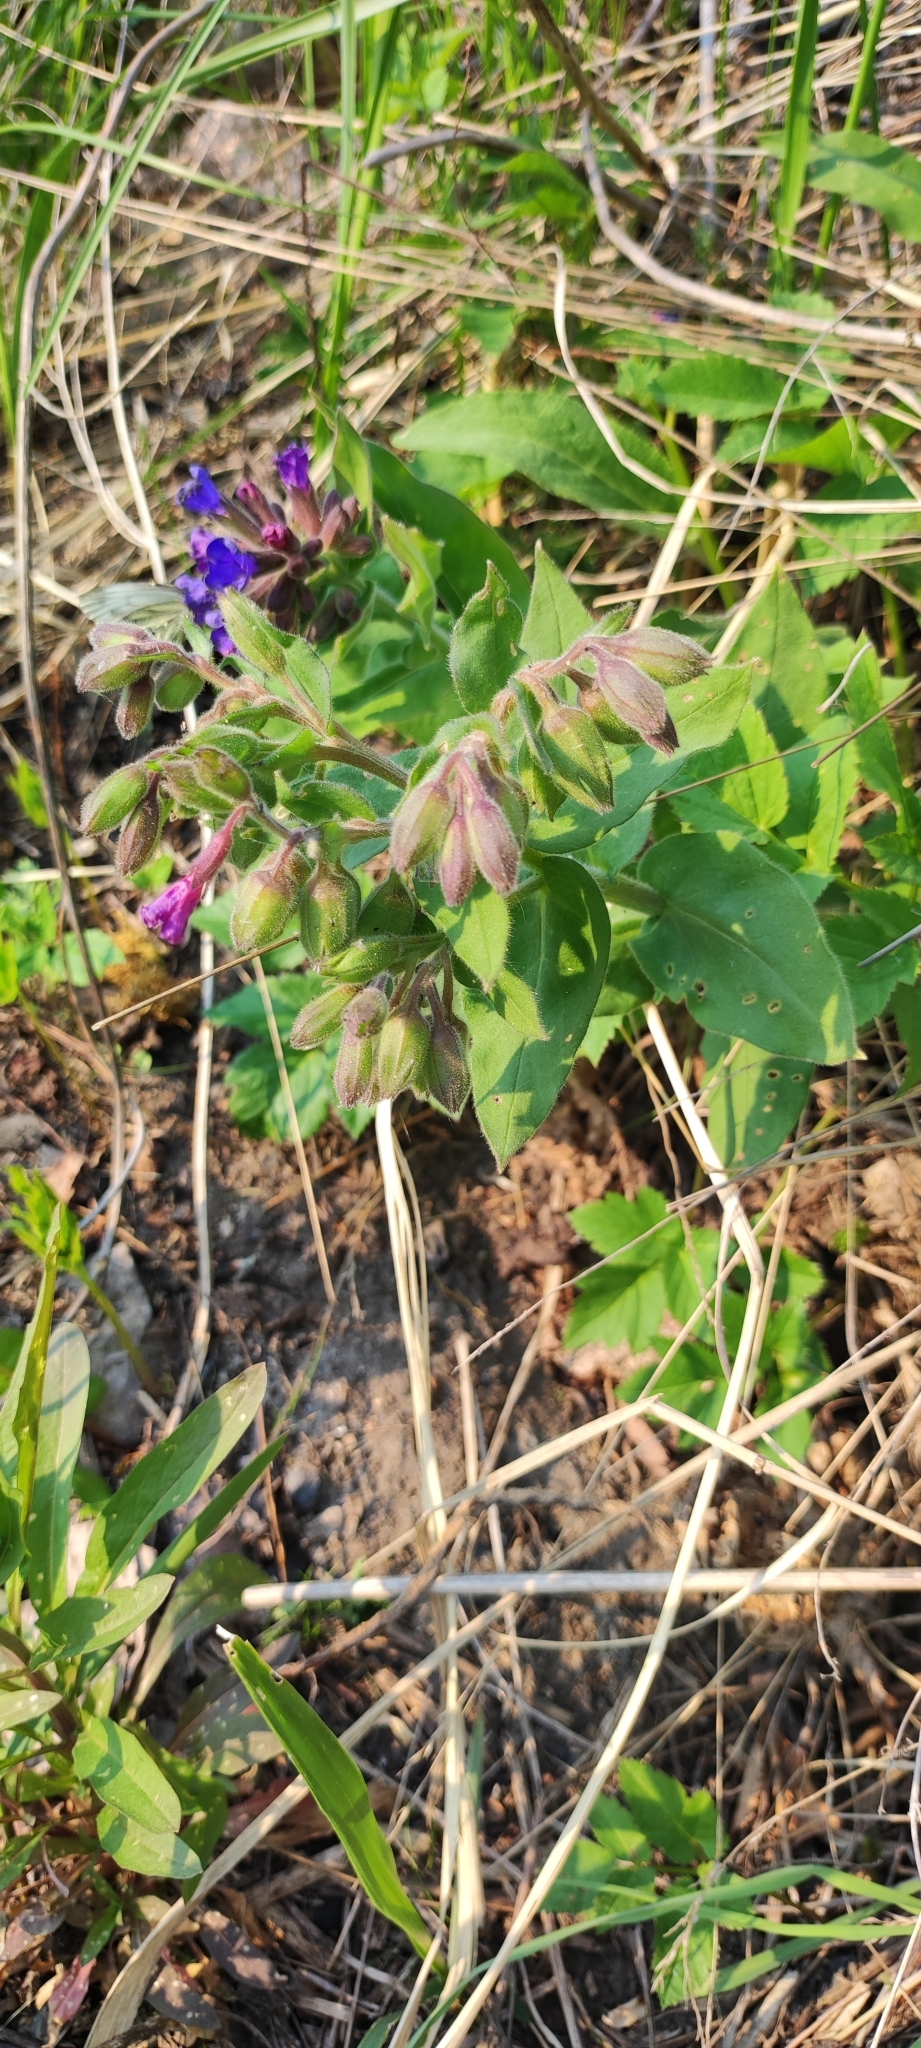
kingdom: Plantae
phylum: Tracheophyta
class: Magnoliopsida
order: Boraginales
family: Boraginaceae
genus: Pulmonaria
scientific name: Pulmonaria mollis
